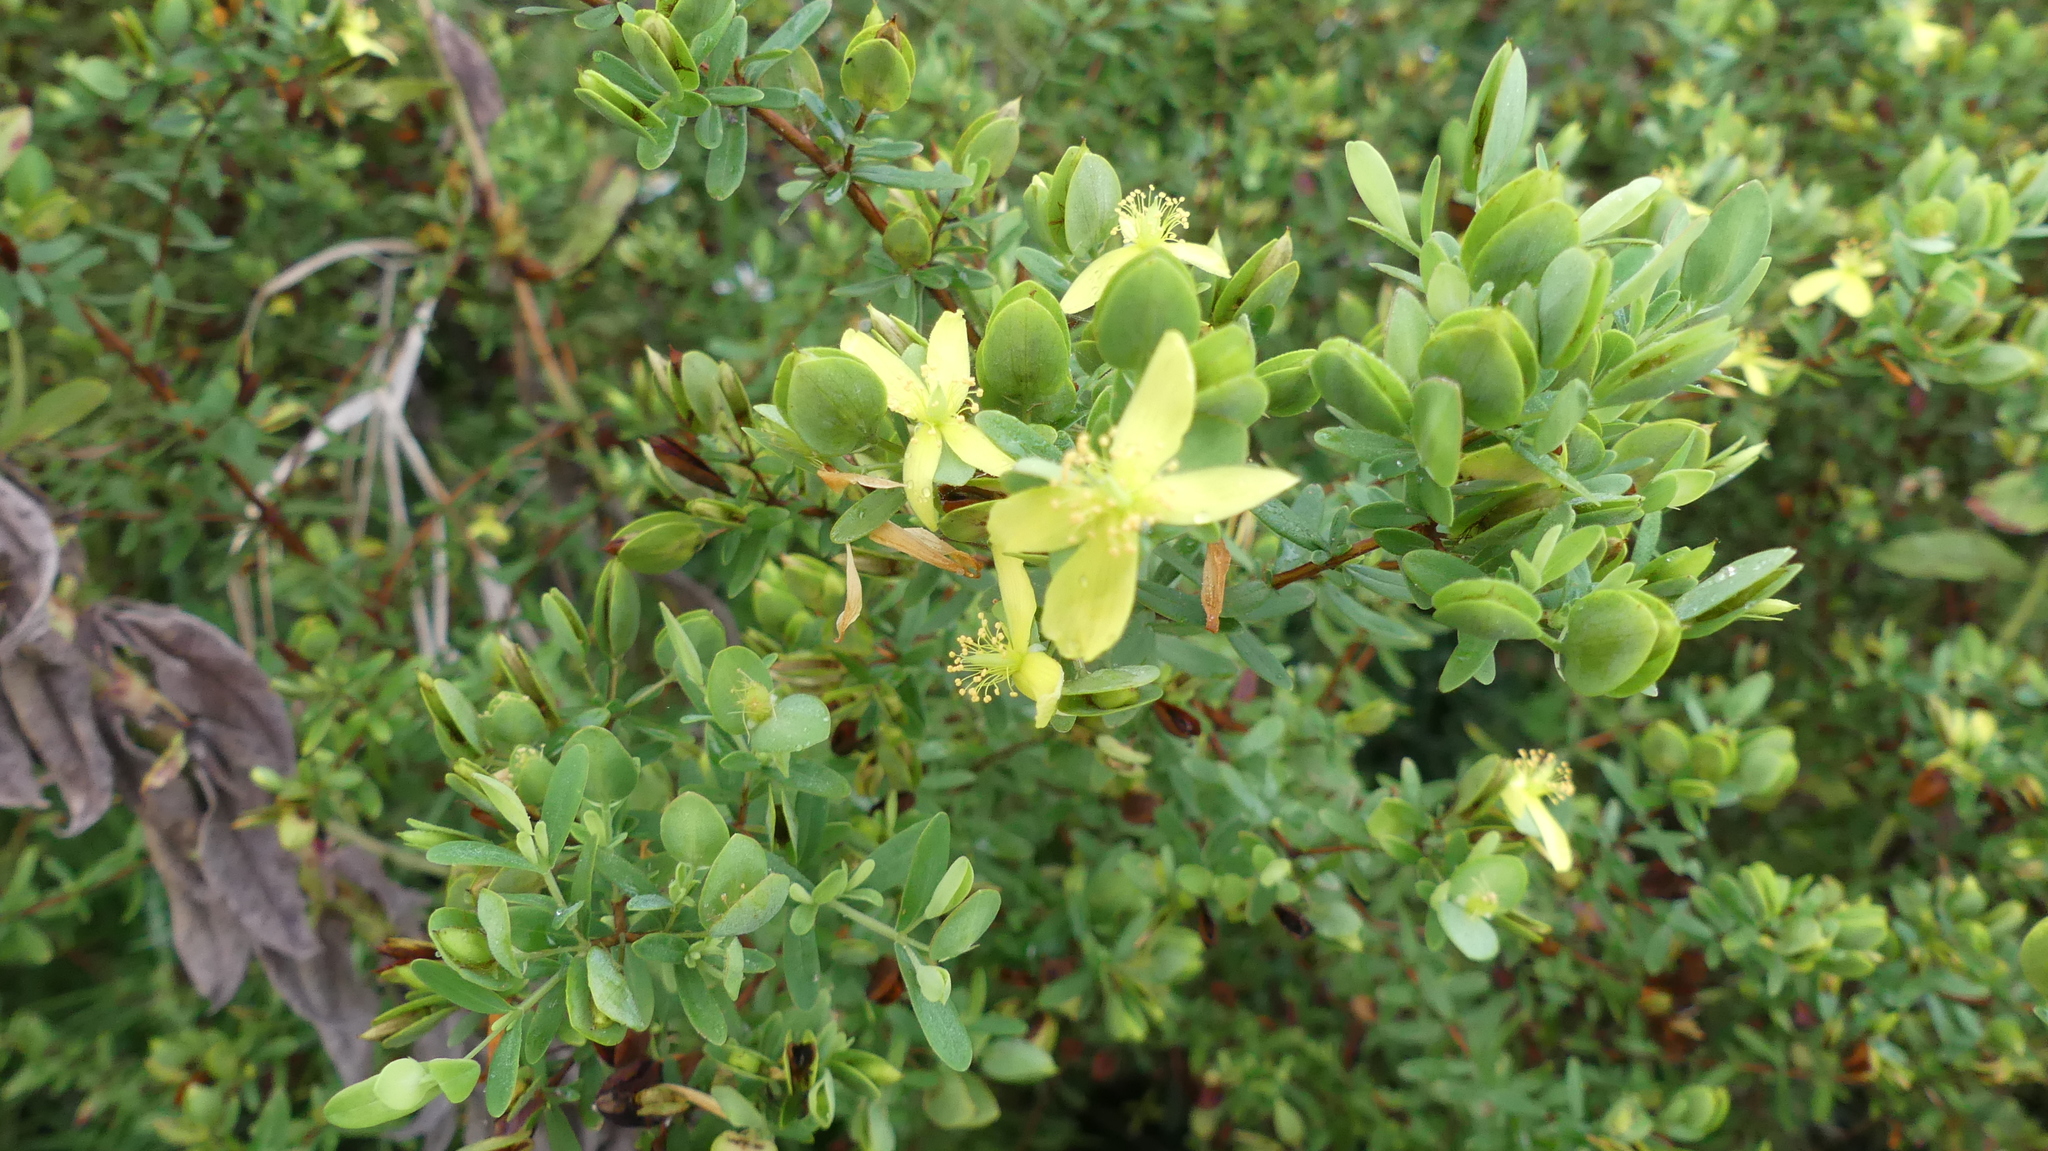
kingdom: Plantae
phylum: Tracheophyta
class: Magnoliopsida
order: Malpighiales
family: Hypericaceae
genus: Hypericum
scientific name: Hypericum hypericoides
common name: St. andrew's cross
